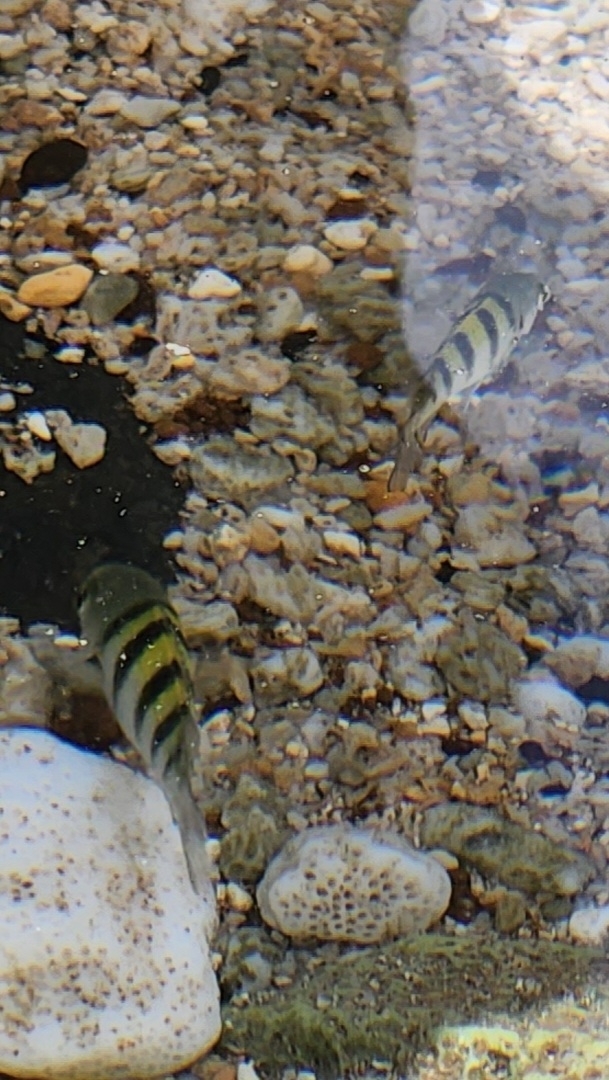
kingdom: Animalia
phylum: Chordata
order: Perciformes
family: Pomacentridae
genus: Abudefduf
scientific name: Abudefduf troschelii
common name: Panamic sergeant major
